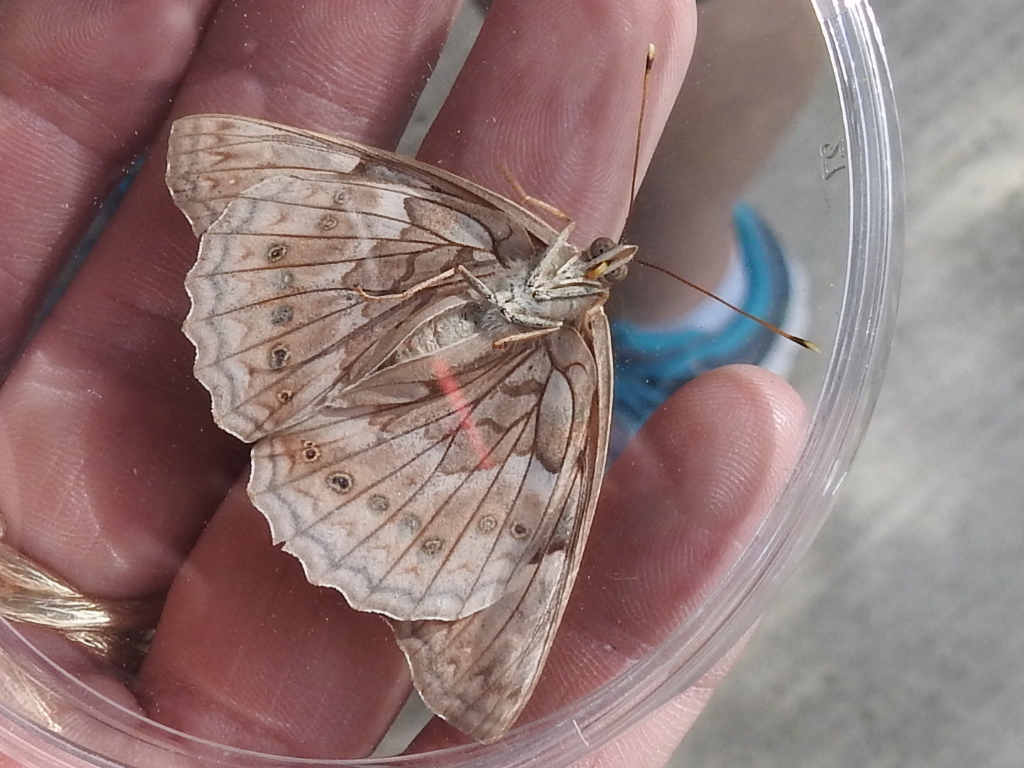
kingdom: Animalia
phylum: Arthropoda
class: Insecta
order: Lepidoptera
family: Nymphalidae
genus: Asterocampa
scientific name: Asterocampa clyton
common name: Tawny emperor
